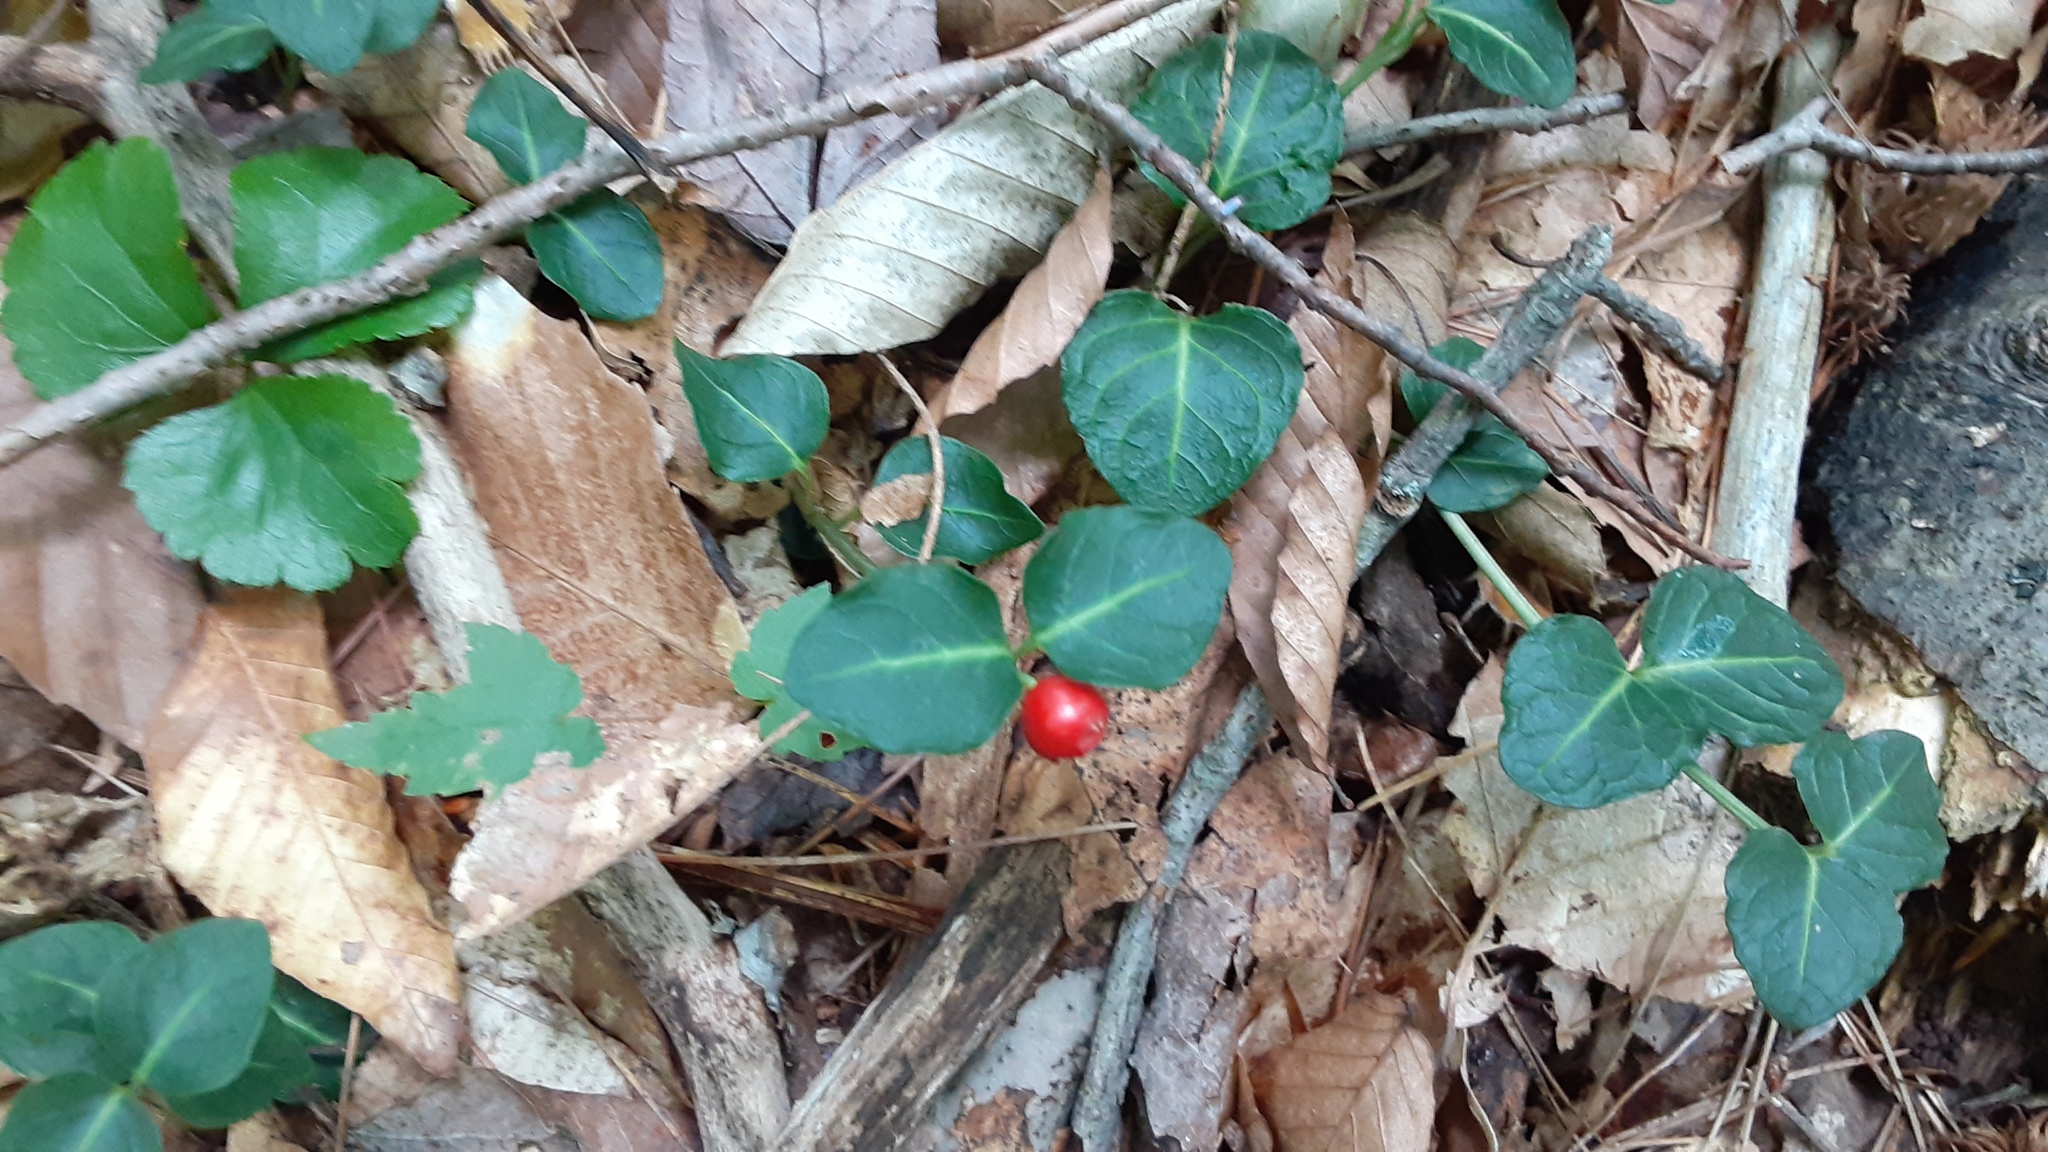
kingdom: Plantae
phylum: Tracheophyta
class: Magnoliopsida
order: Gentianales
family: Rubiaceae
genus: Mitchella
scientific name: Mitchella repens
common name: Partridge-berry
